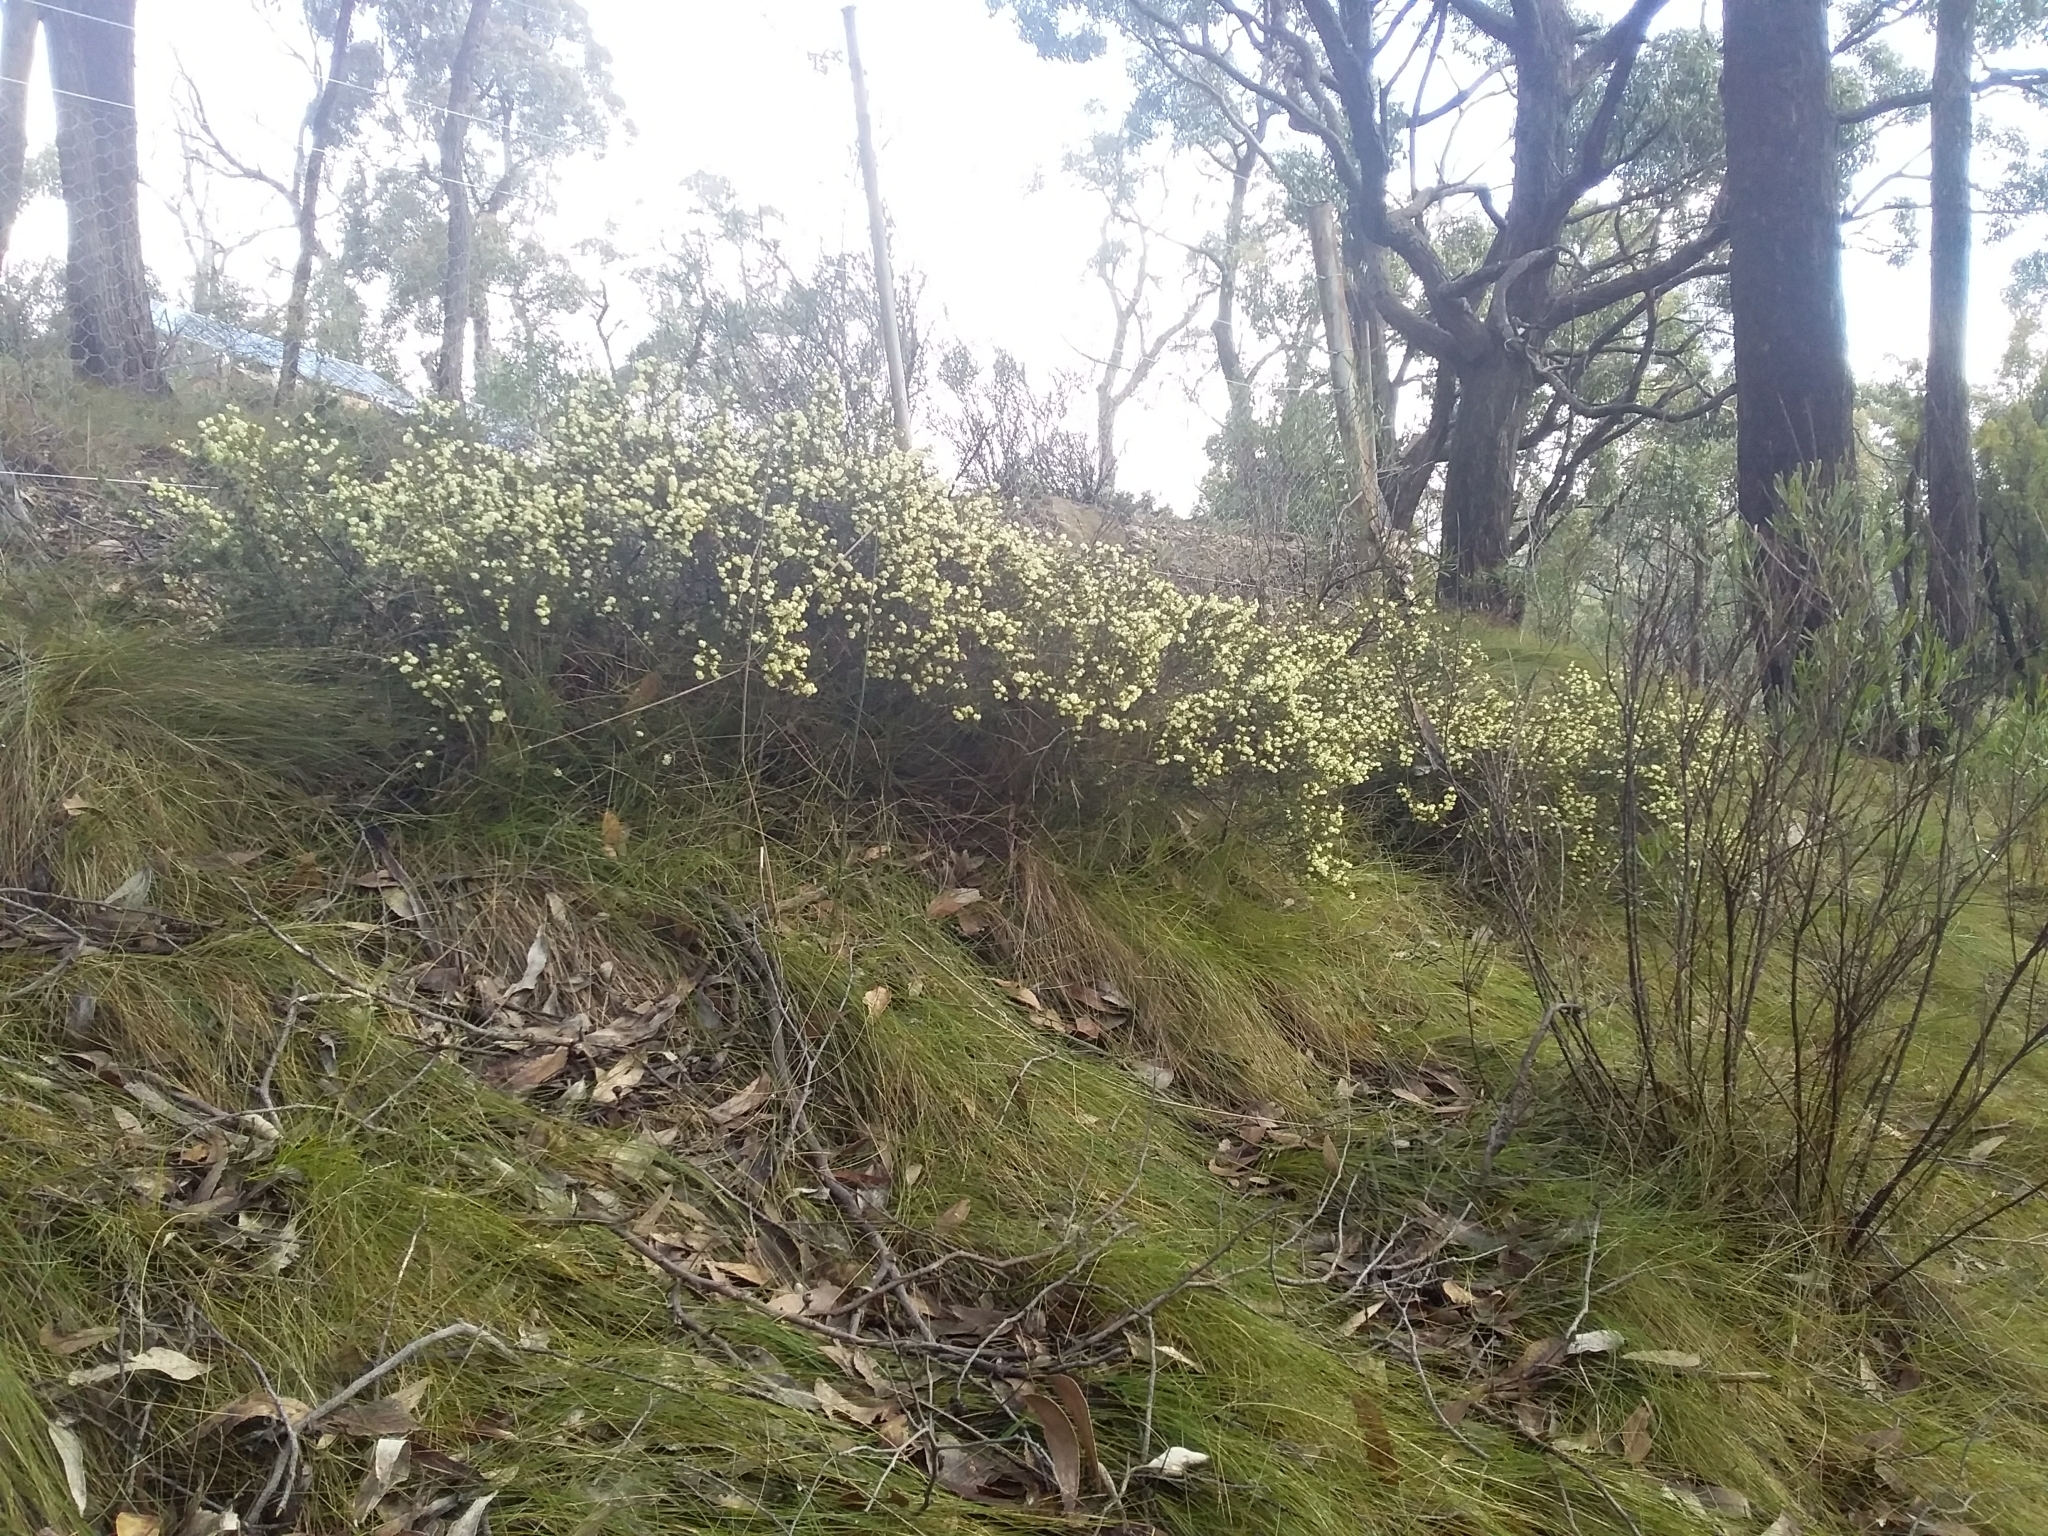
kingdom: Plantae
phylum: Tracheophyta
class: Magnoliopsida
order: Fabales
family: Fabaceae
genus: Acacia
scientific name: Acacia gunnii
